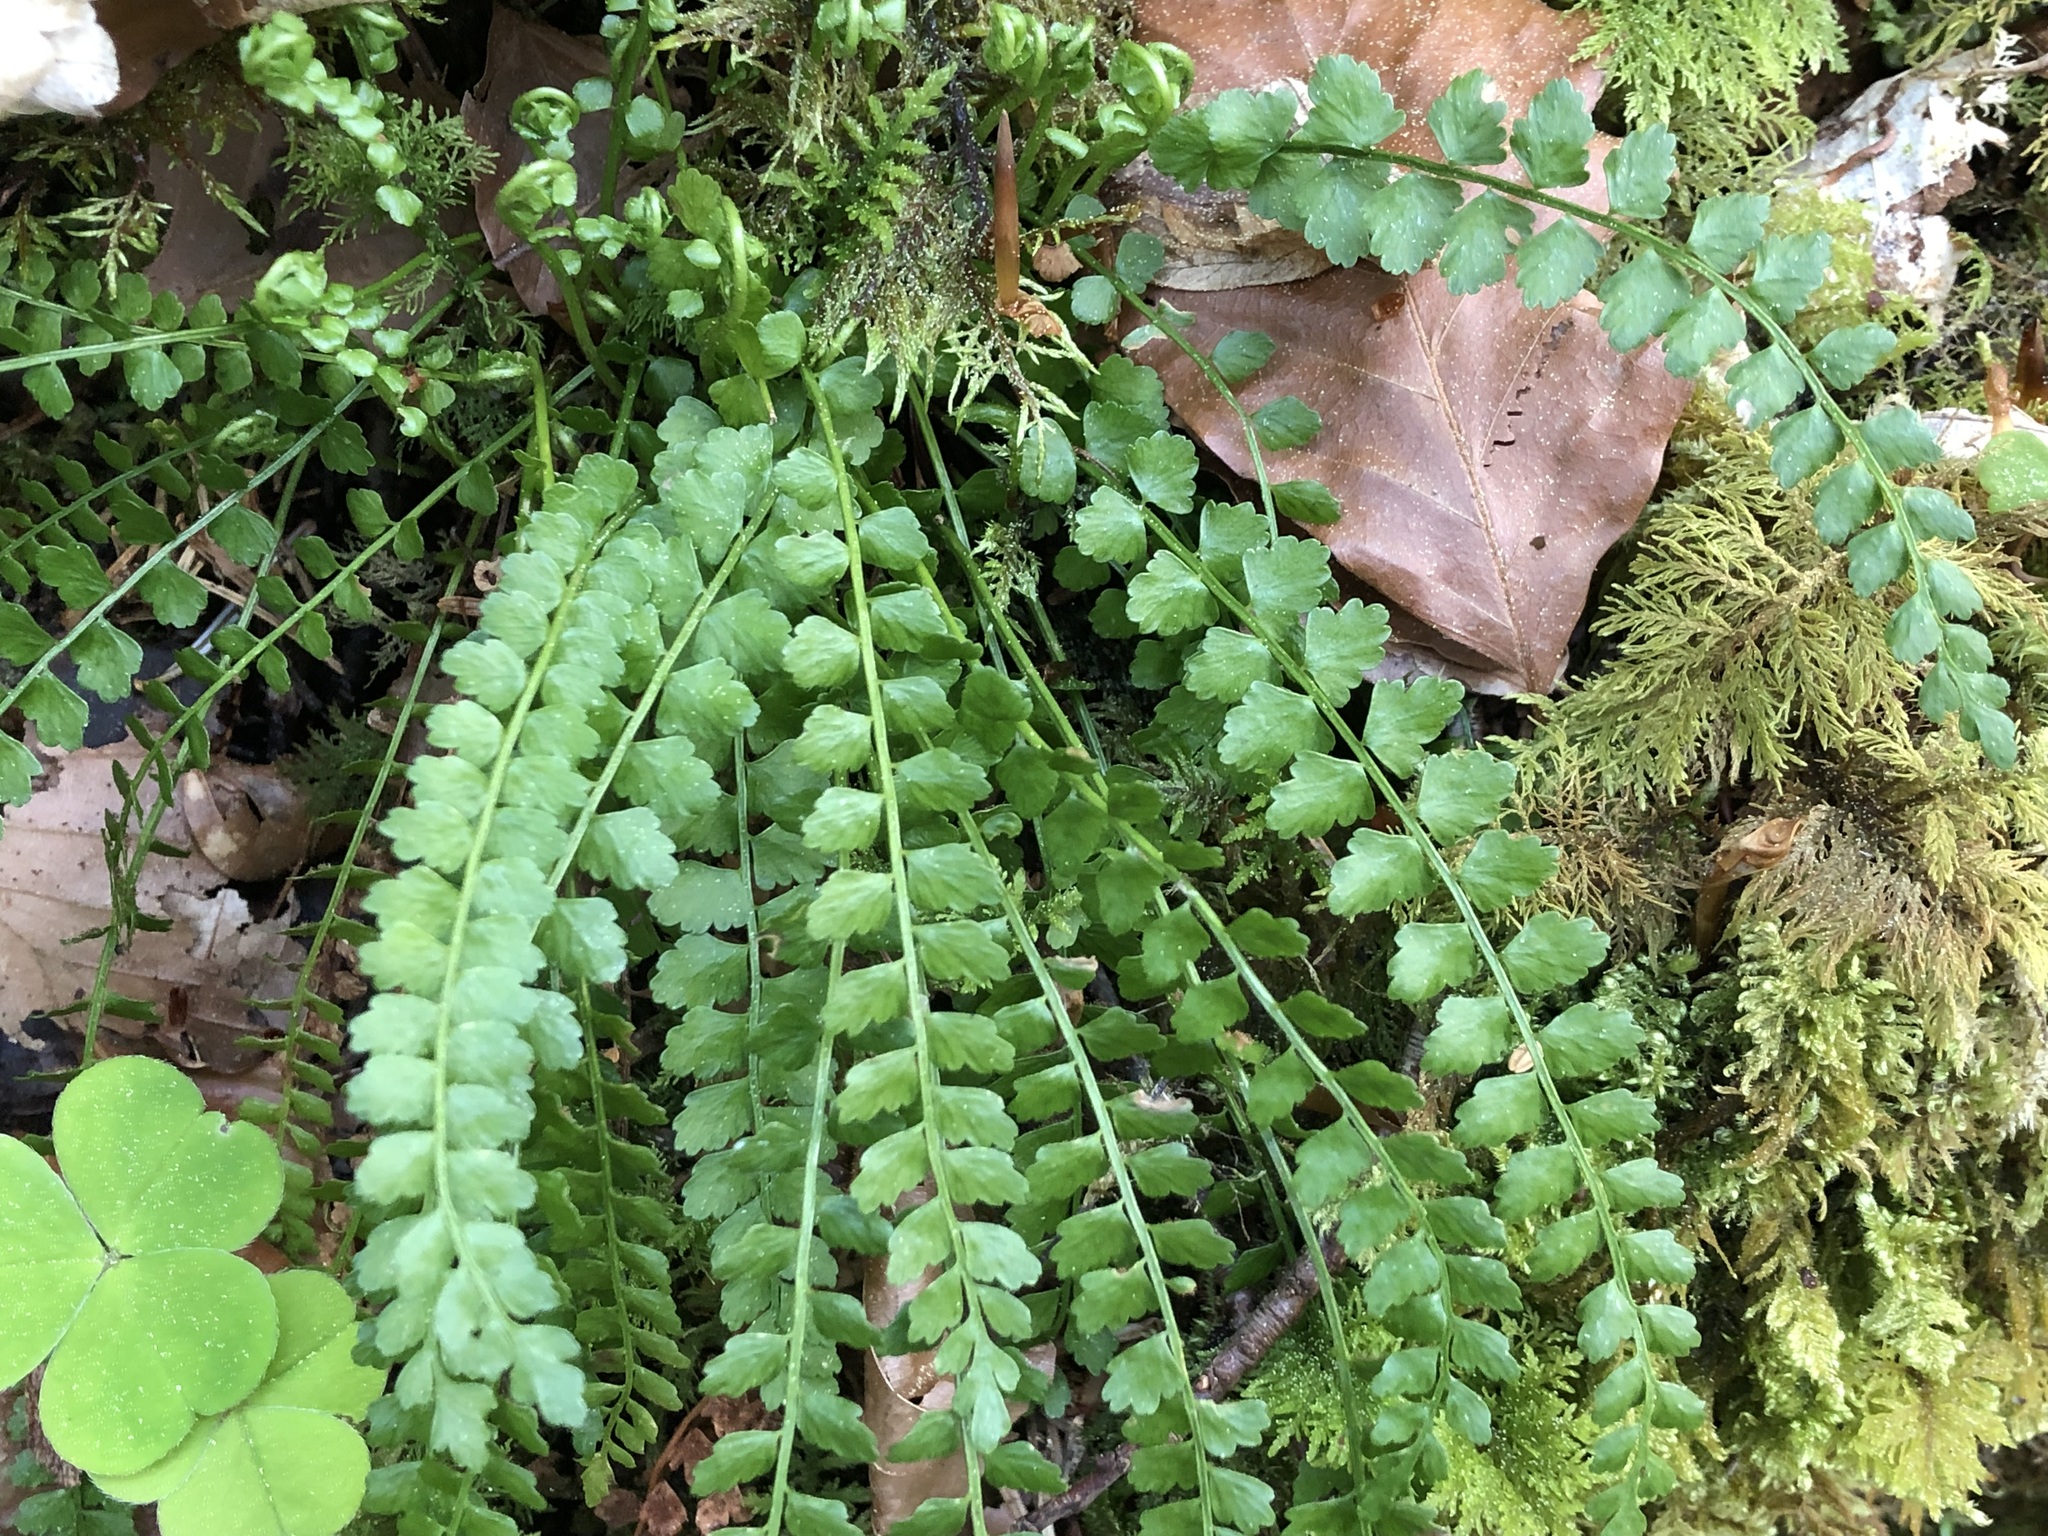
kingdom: Plantae
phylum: Tracheophyta
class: Polypodiopsida
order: Polypodiales
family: Aspleniaceae
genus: Asplenium
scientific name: Asplenium viride
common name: Green spleenwort
